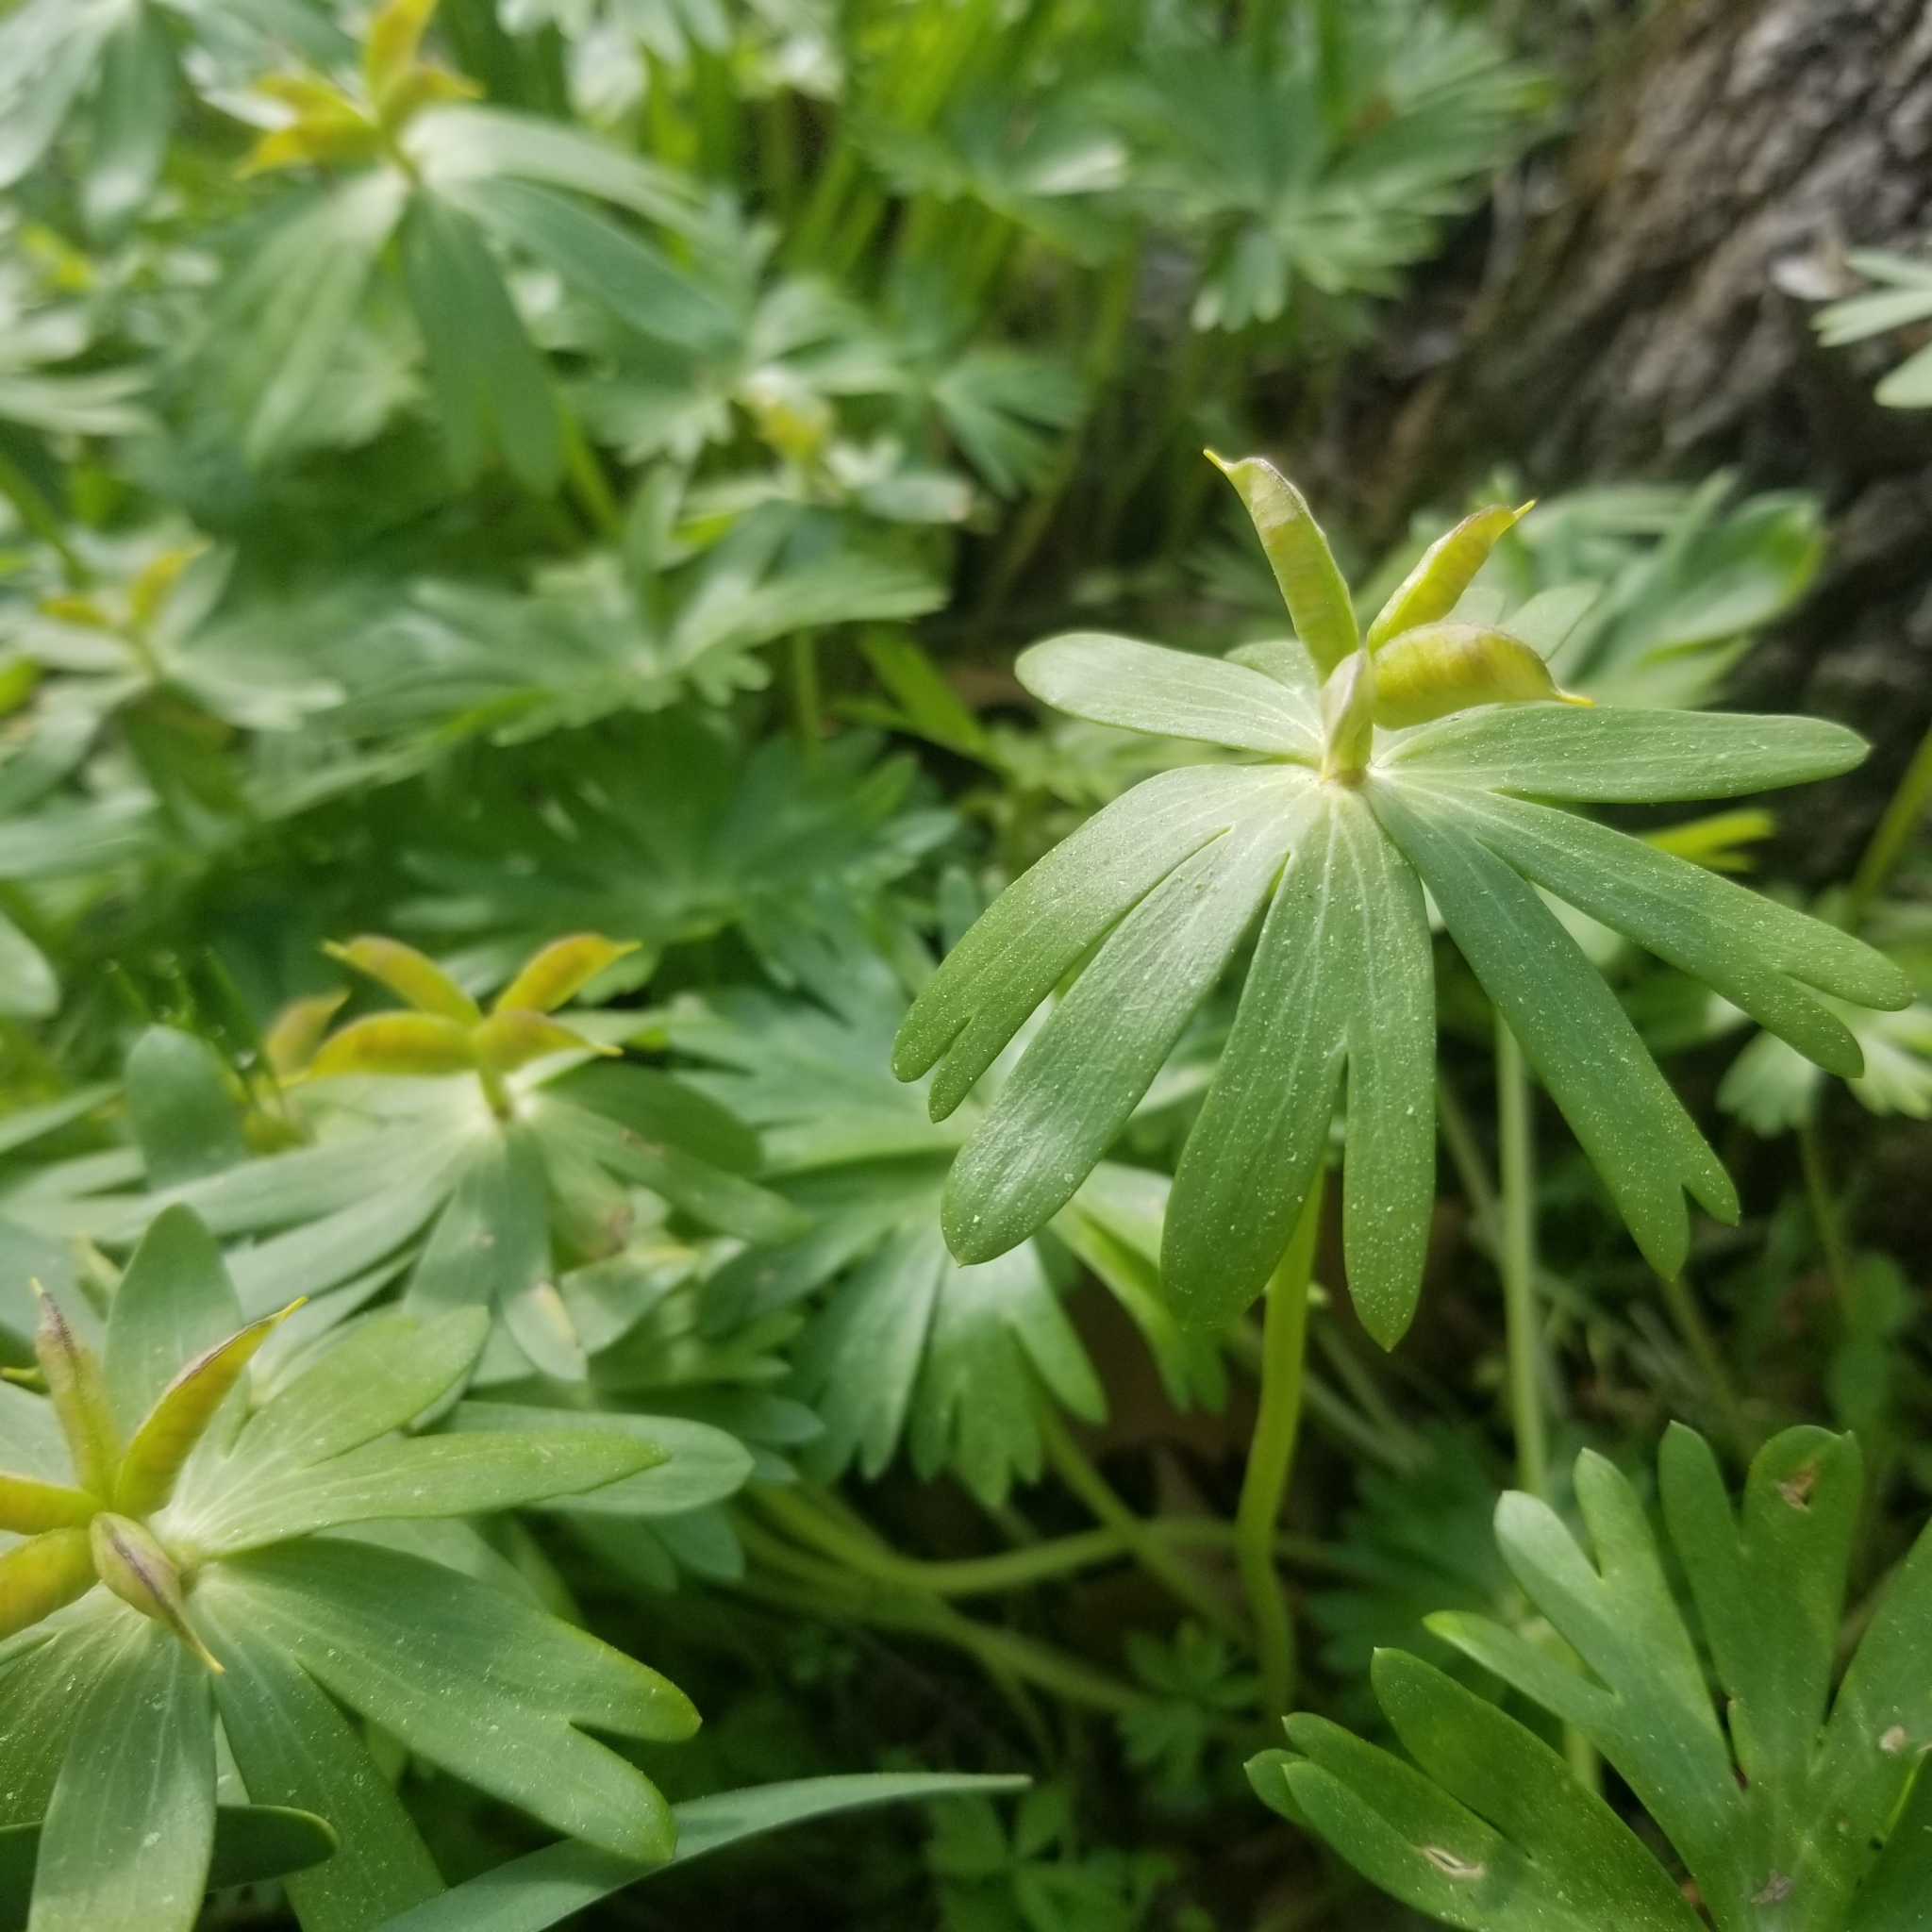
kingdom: Plantae
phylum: Tracheophyta
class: Magnoliopsida
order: Ranunculales
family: Ranunculaceae
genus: Eranthis
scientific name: Eranthis hyemalis
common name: Winter aconite
